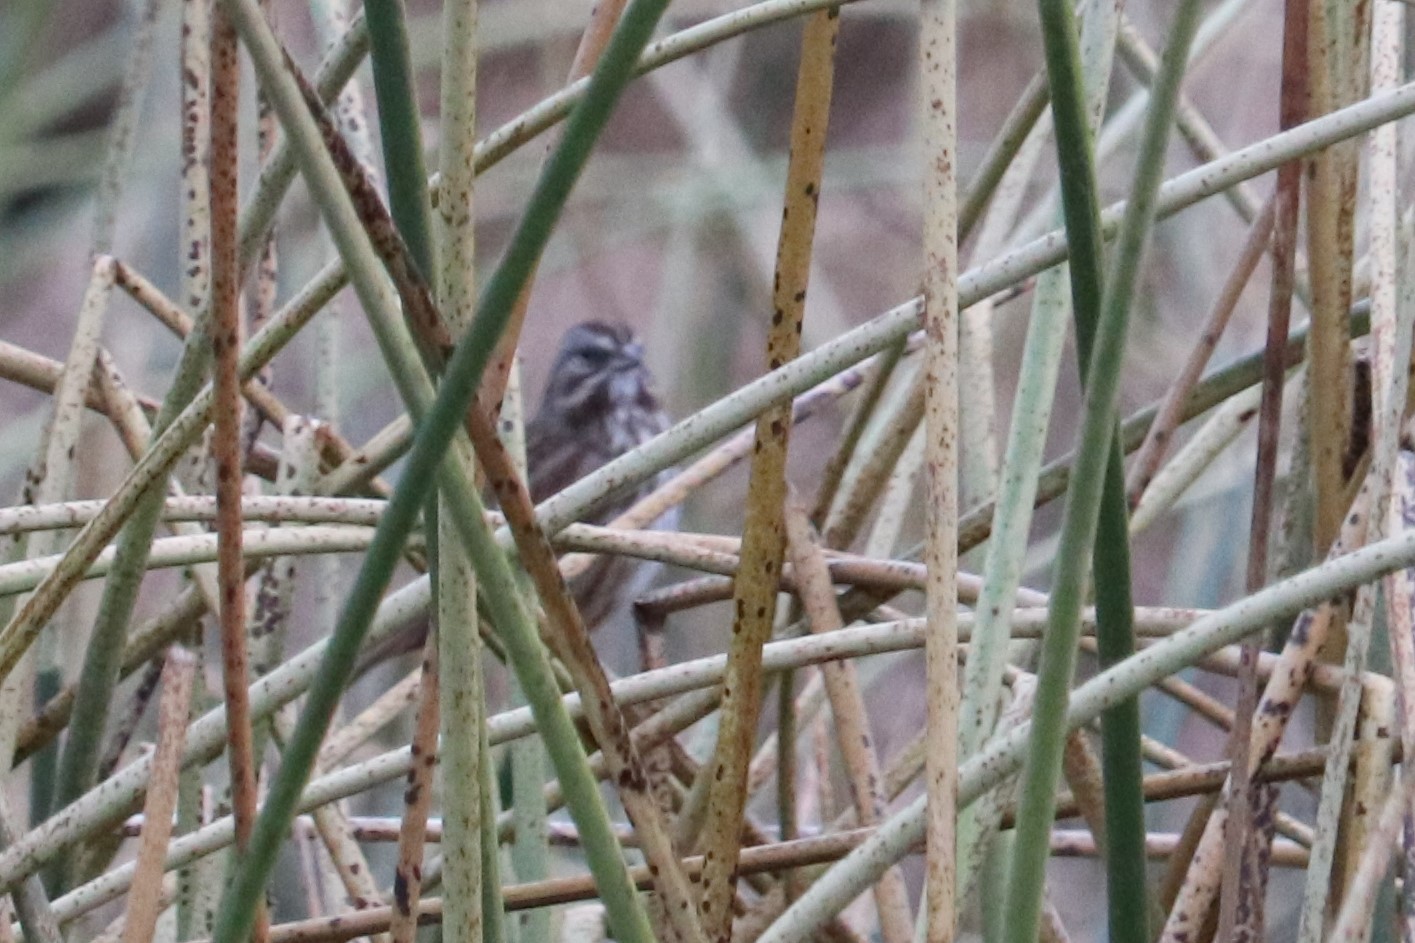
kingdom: Animalia
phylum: Chordata
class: Aves
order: Passeriformes
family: Passerellidae
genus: Melospiza
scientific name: Melospiza melodia
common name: Song sparrow
